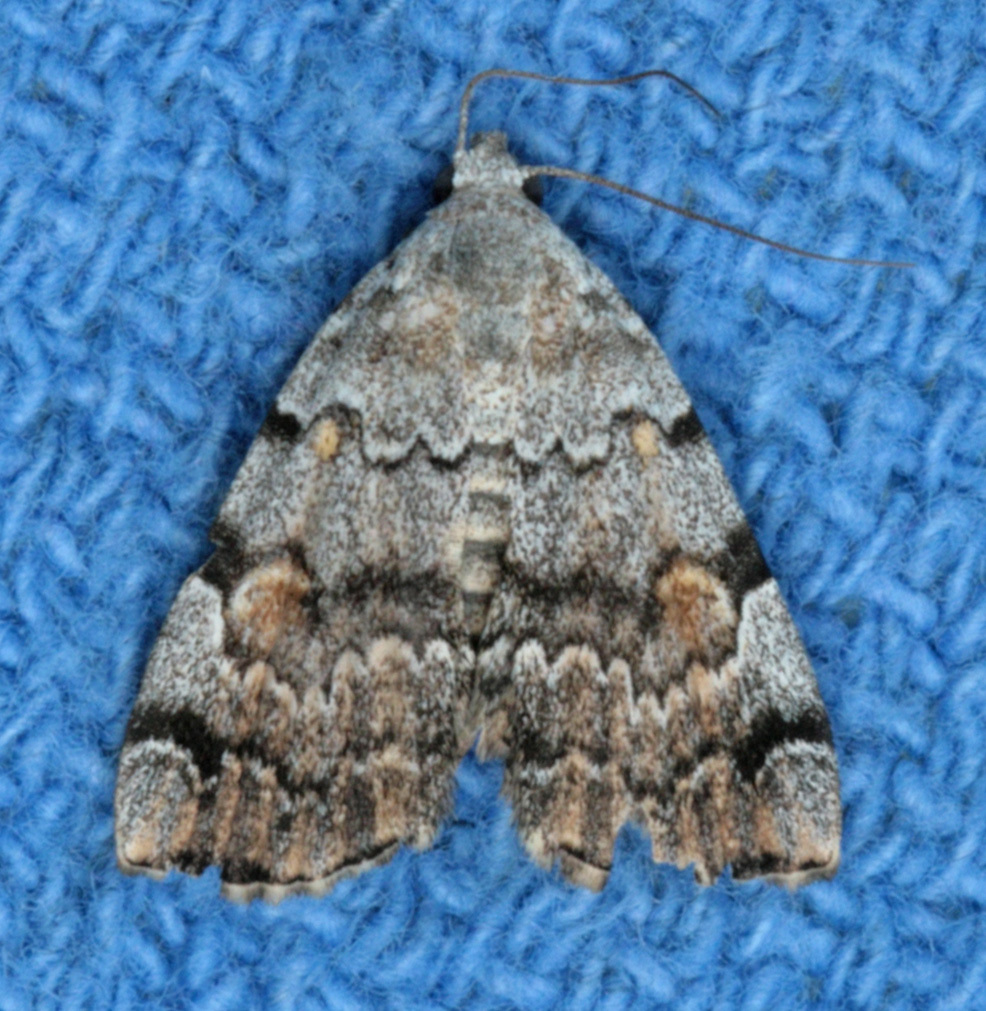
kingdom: Animalia
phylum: Arthropoda
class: Insecta
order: Lepidoptera
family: Erebidae
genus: Idia
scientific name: Idia americalis
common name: American idia moth
